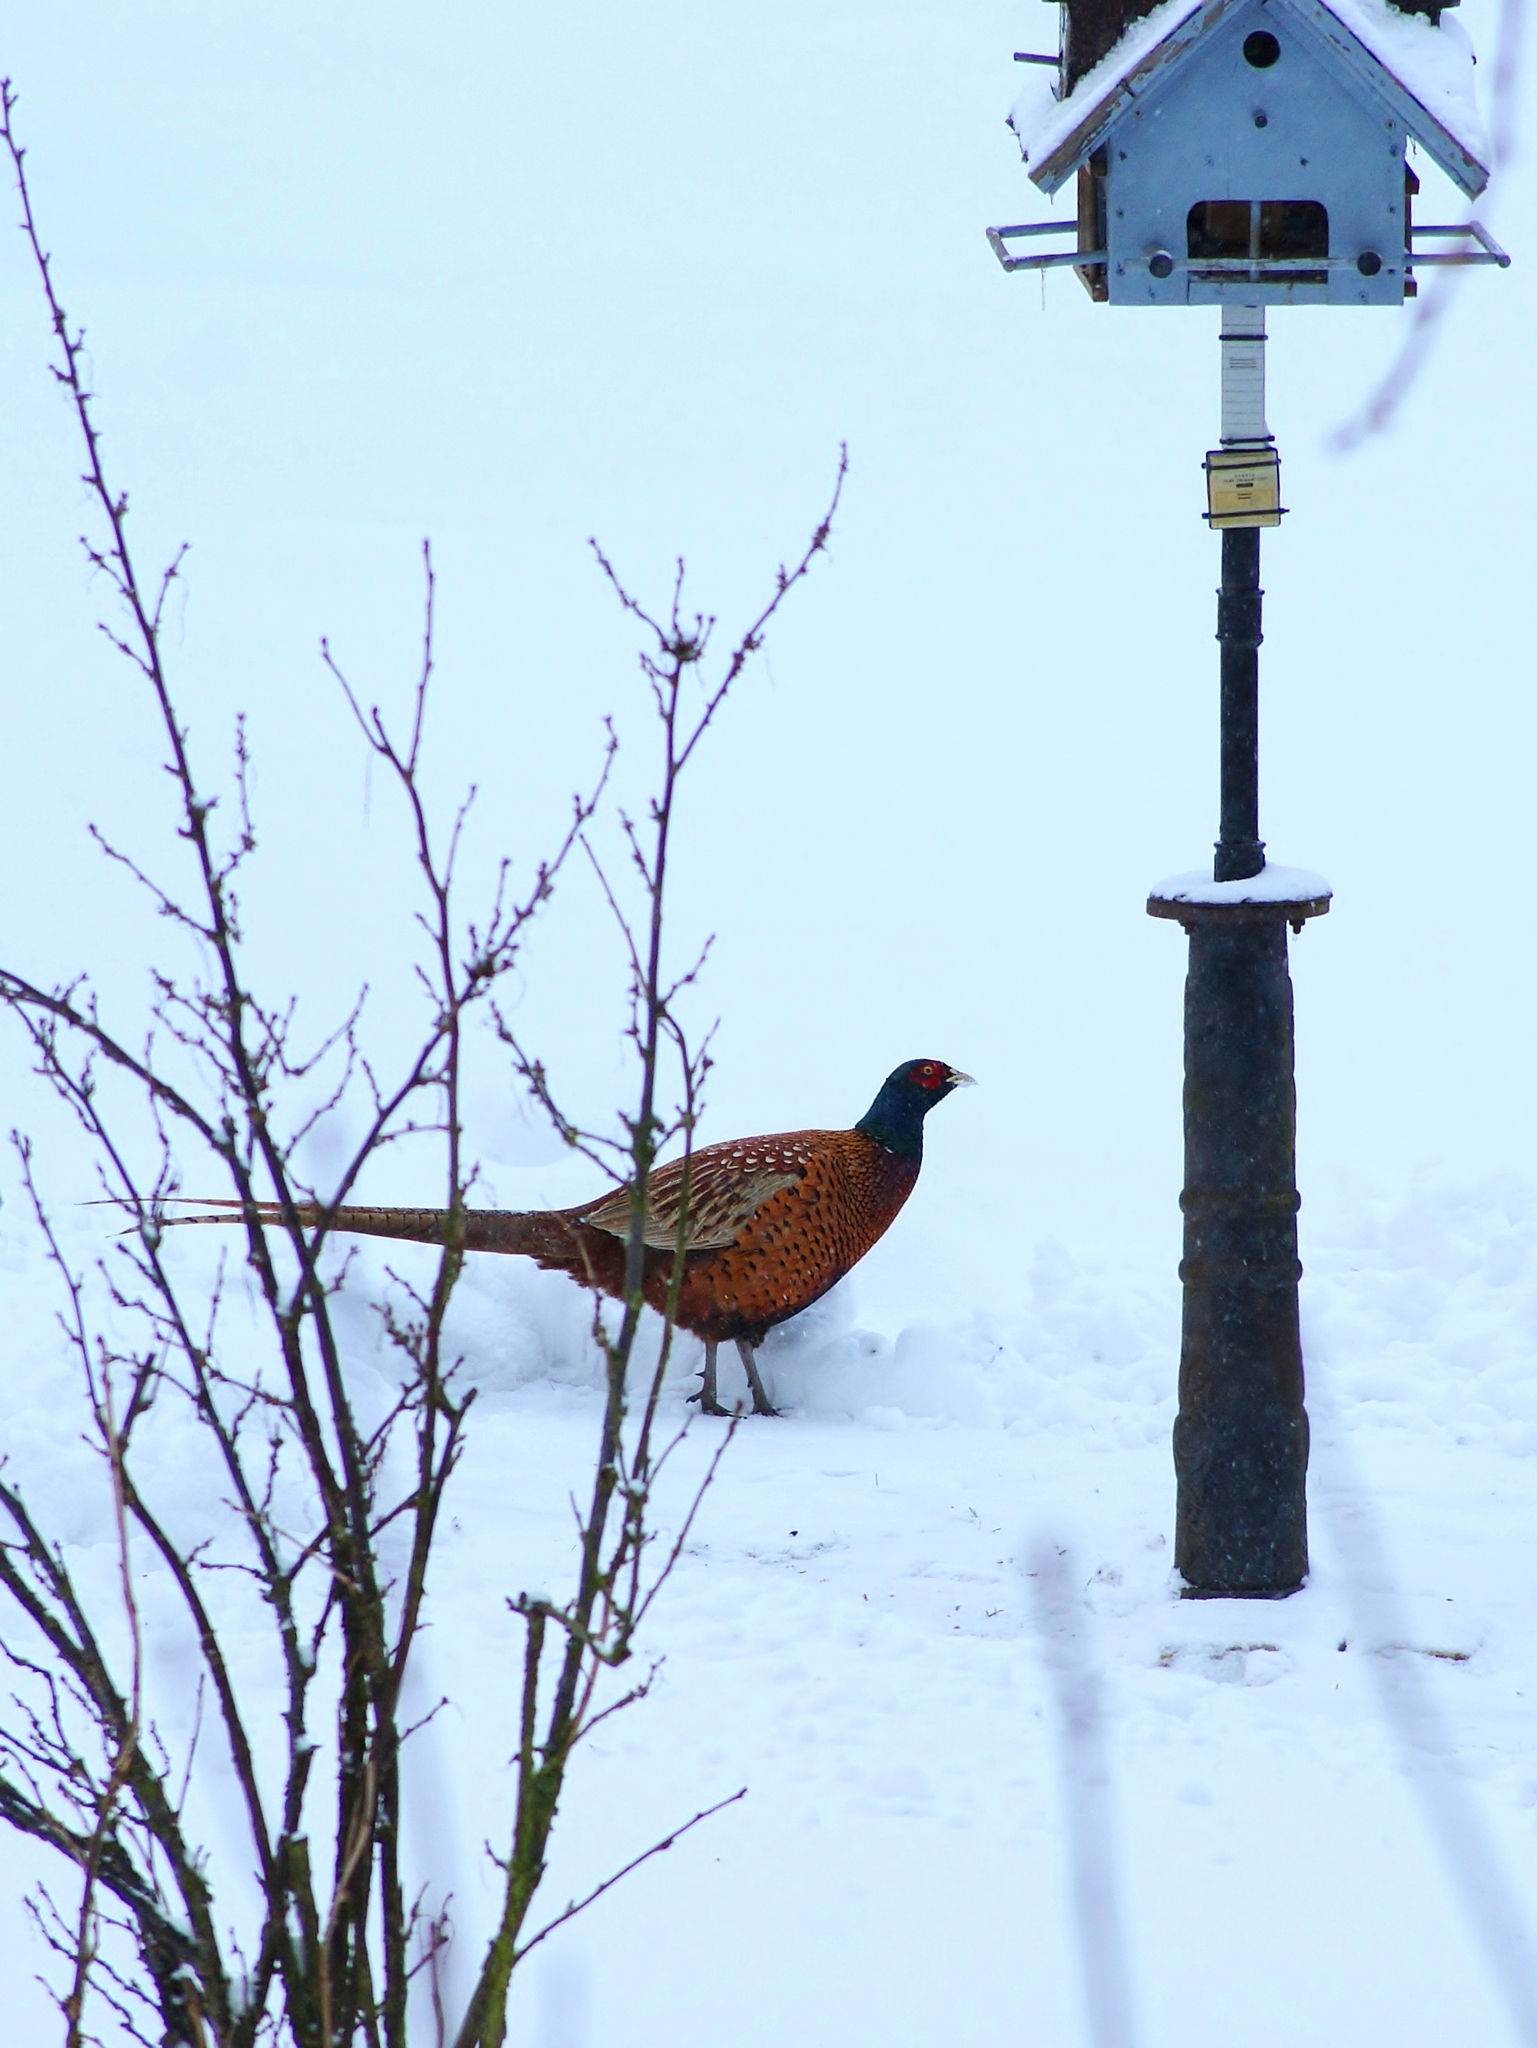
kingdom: Animalia
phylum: Chordata
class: Aves
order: Galliformes
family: Phasianidae
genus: Phasianus
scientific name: Phasianus colchicus
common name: Common pheasant
